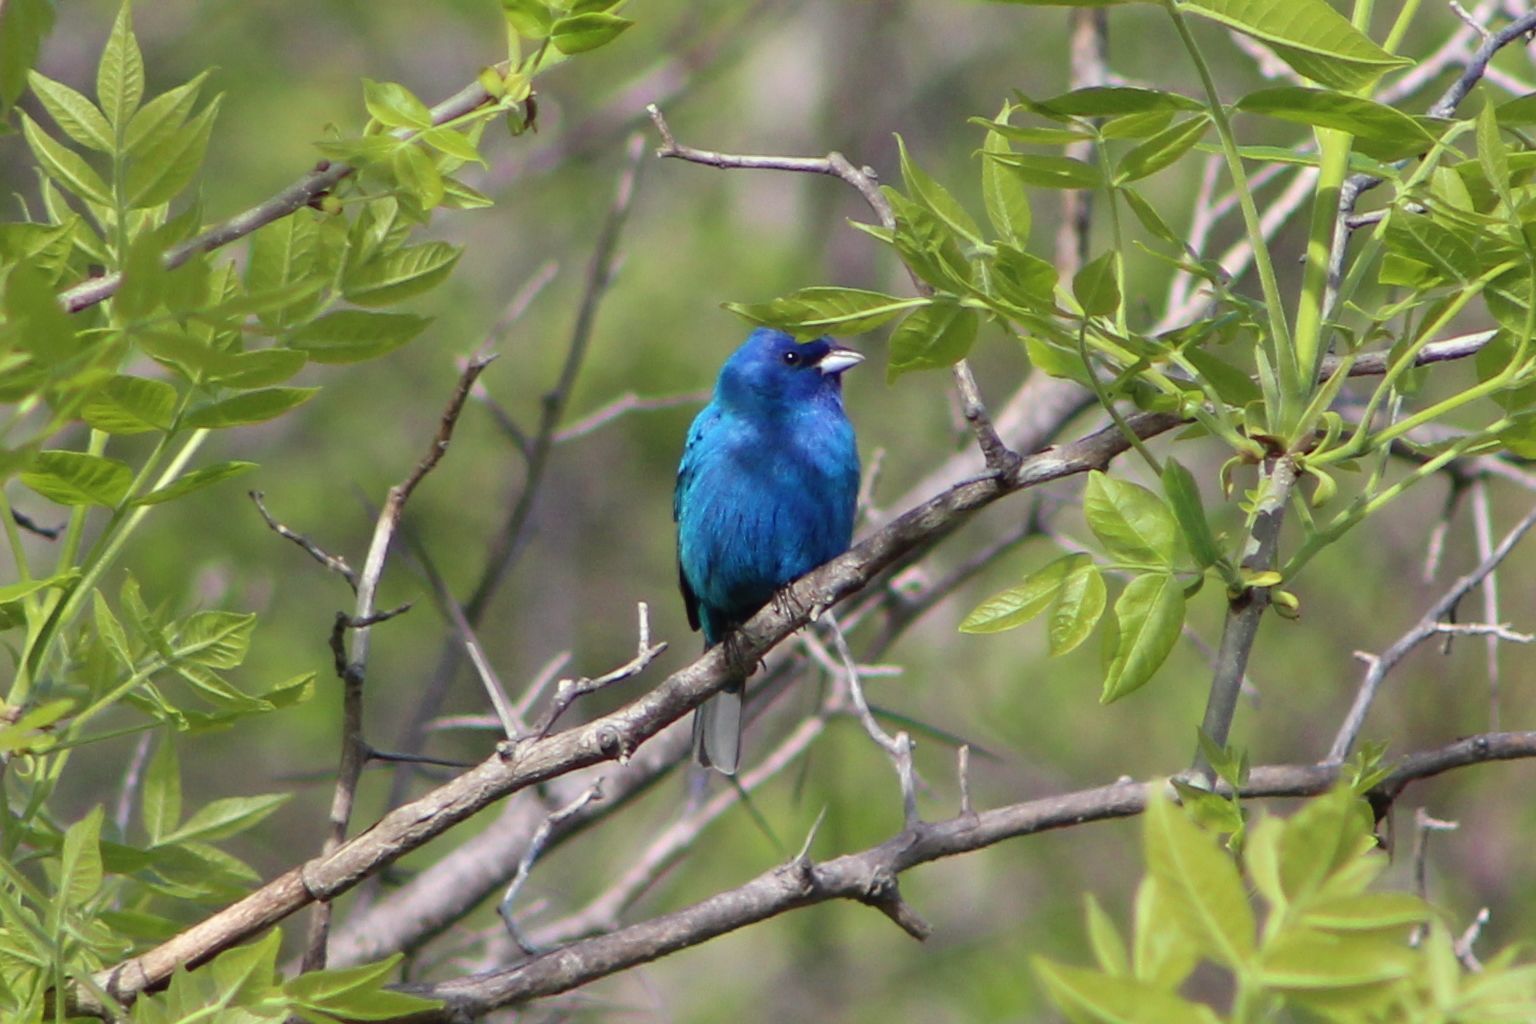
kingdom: Animalia
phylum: Chordata
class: Aves
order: Passeriformes
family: Cardinalidae
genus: Passerina
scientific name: Passerina cyanea
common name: Indigo bunting
